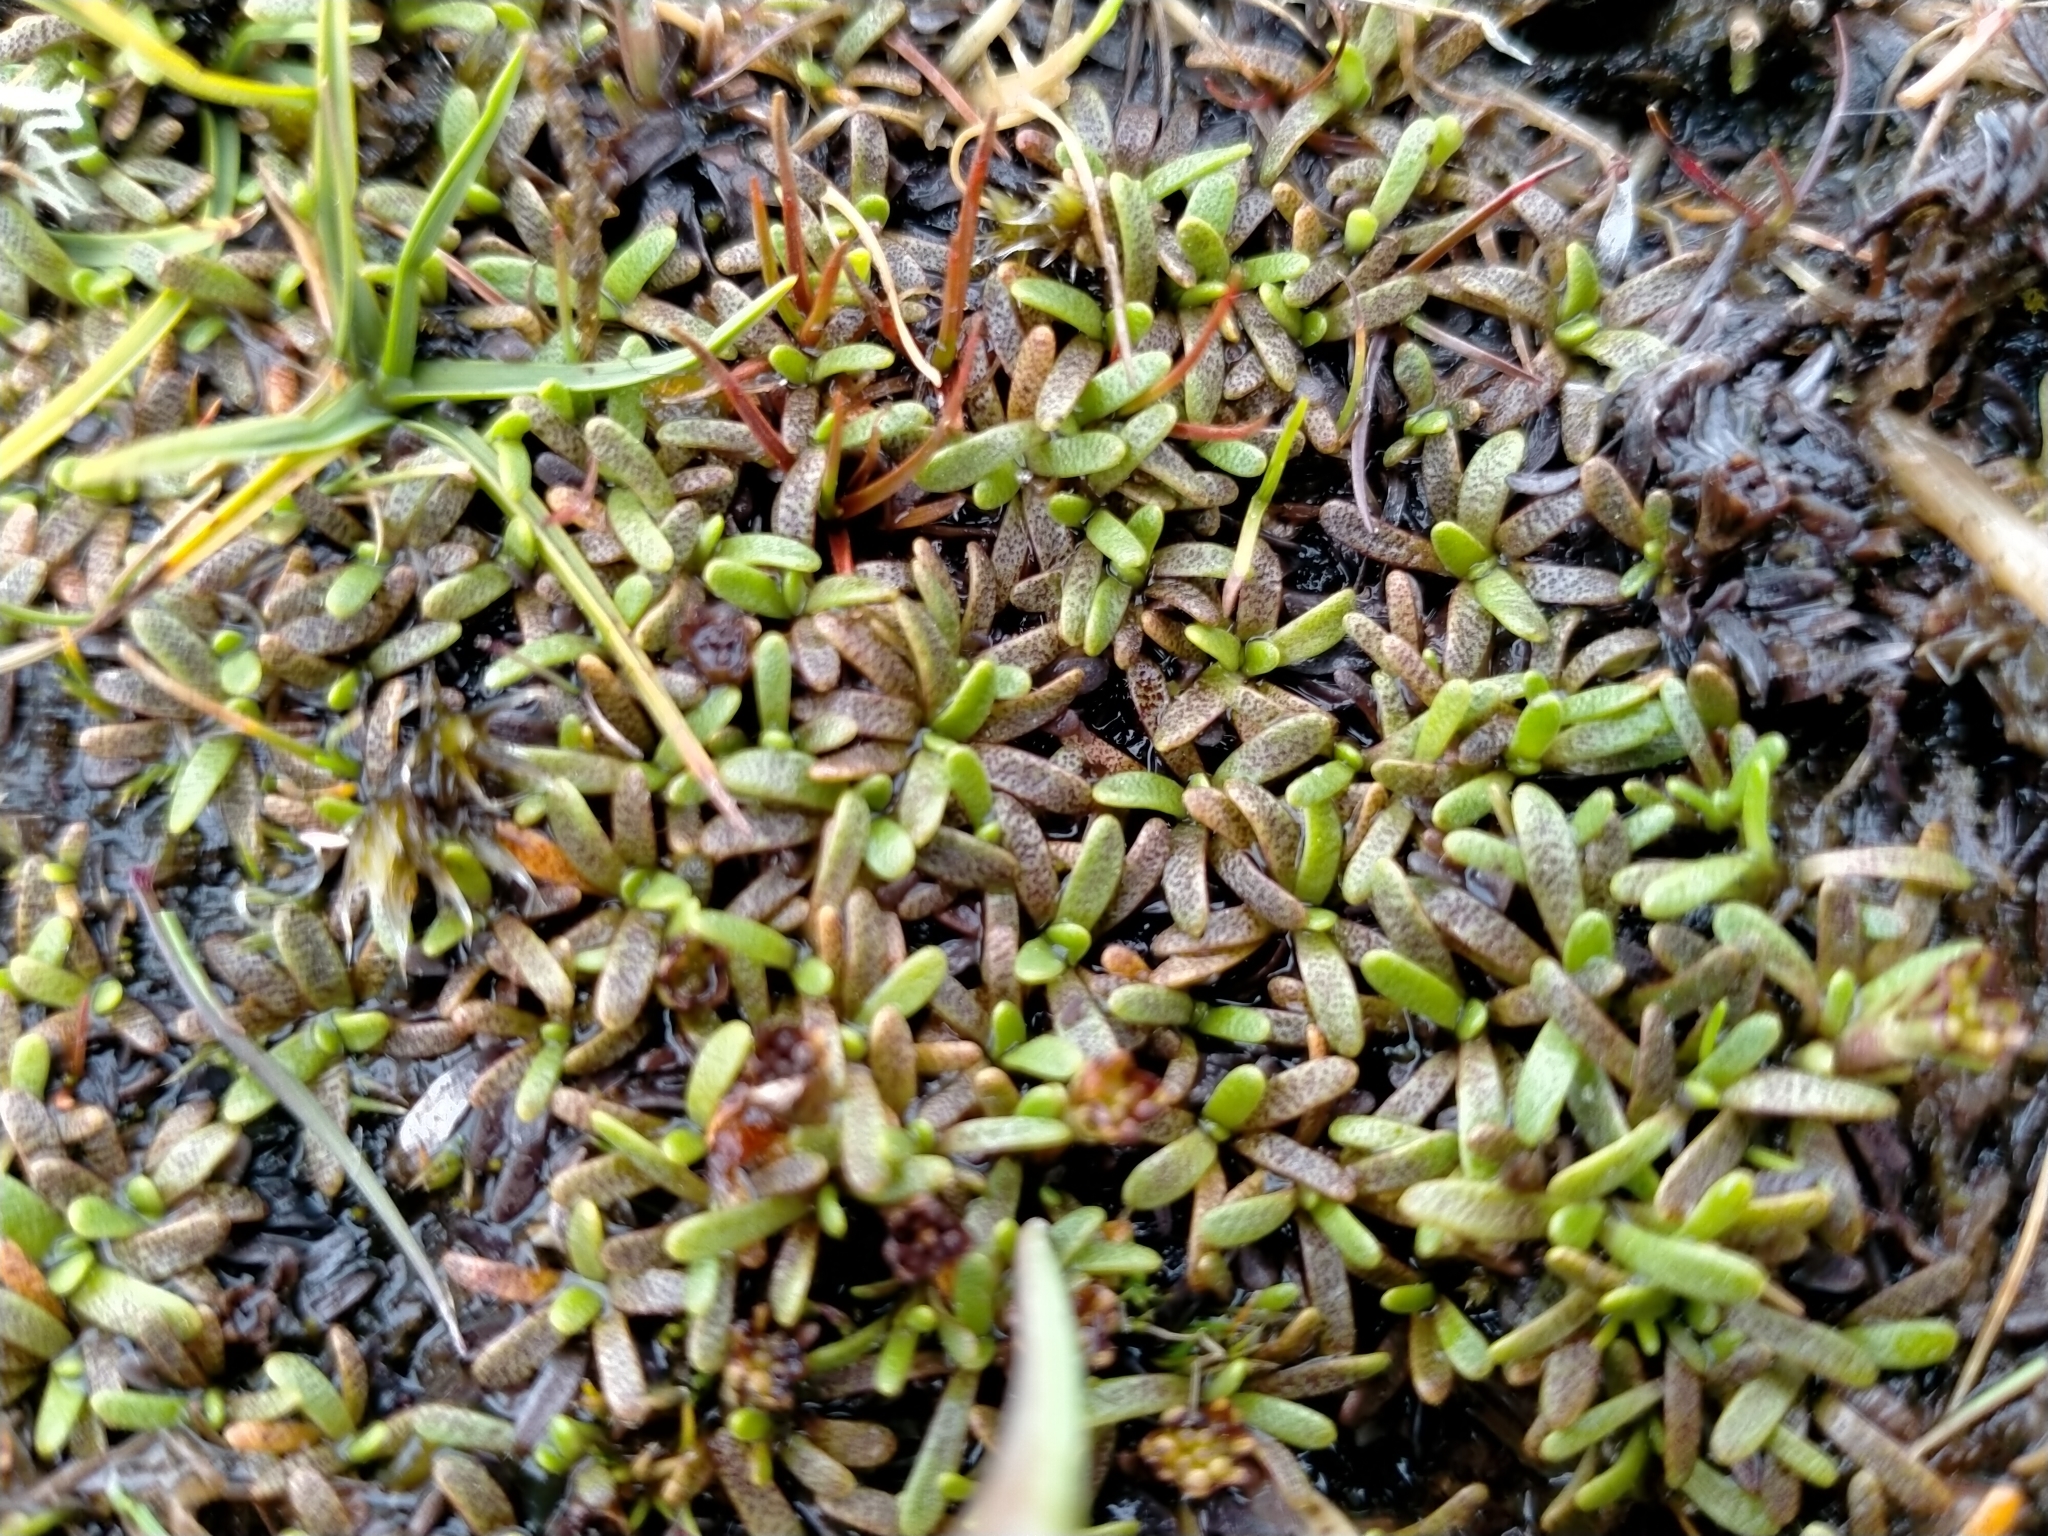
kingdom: Plantae
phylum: Tracheophyta
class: Magnoliopsida
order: Asterales
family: Asteraceae
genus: Abrotanella
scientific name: Abrotanella caespitosa
